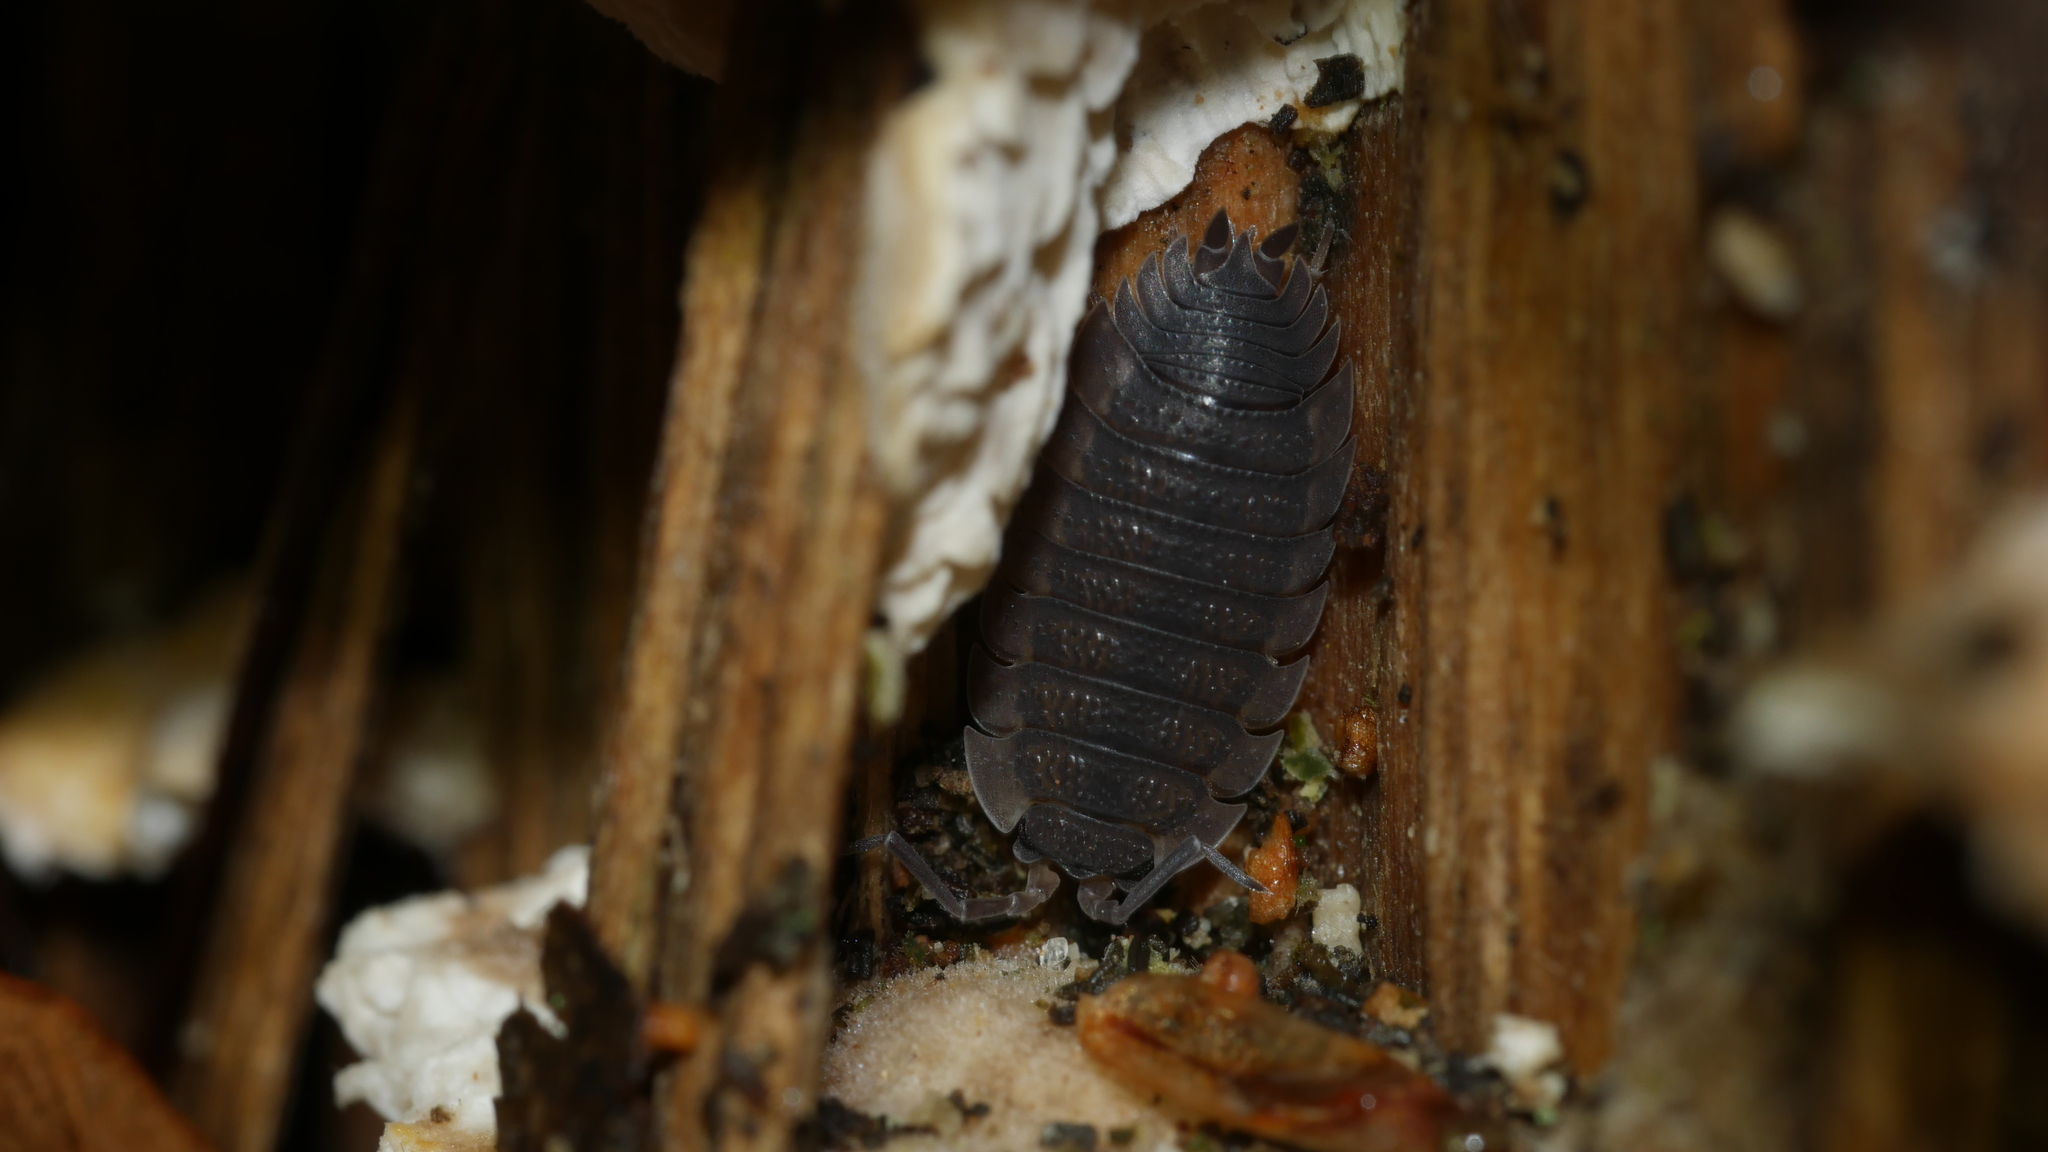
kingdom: Animalia
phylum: Arthropoda
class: Malacostraca
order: Isopoda
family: Porcellionidae
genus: Porcellio
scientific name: Porcellio scaber
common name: Common rough woodlouse
